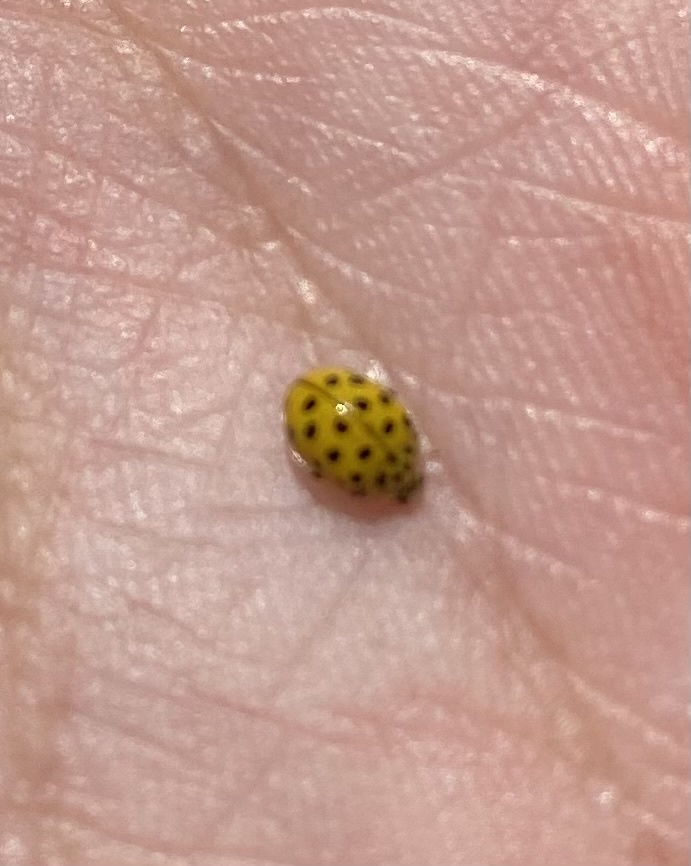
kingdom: Animalia
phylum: Arthropoda
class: Insecta
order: Coleoptera
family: Coccinellidae
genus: Psyllobora
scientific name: Psyllobora vigintiduopunctata
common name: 22-spot ladybird
